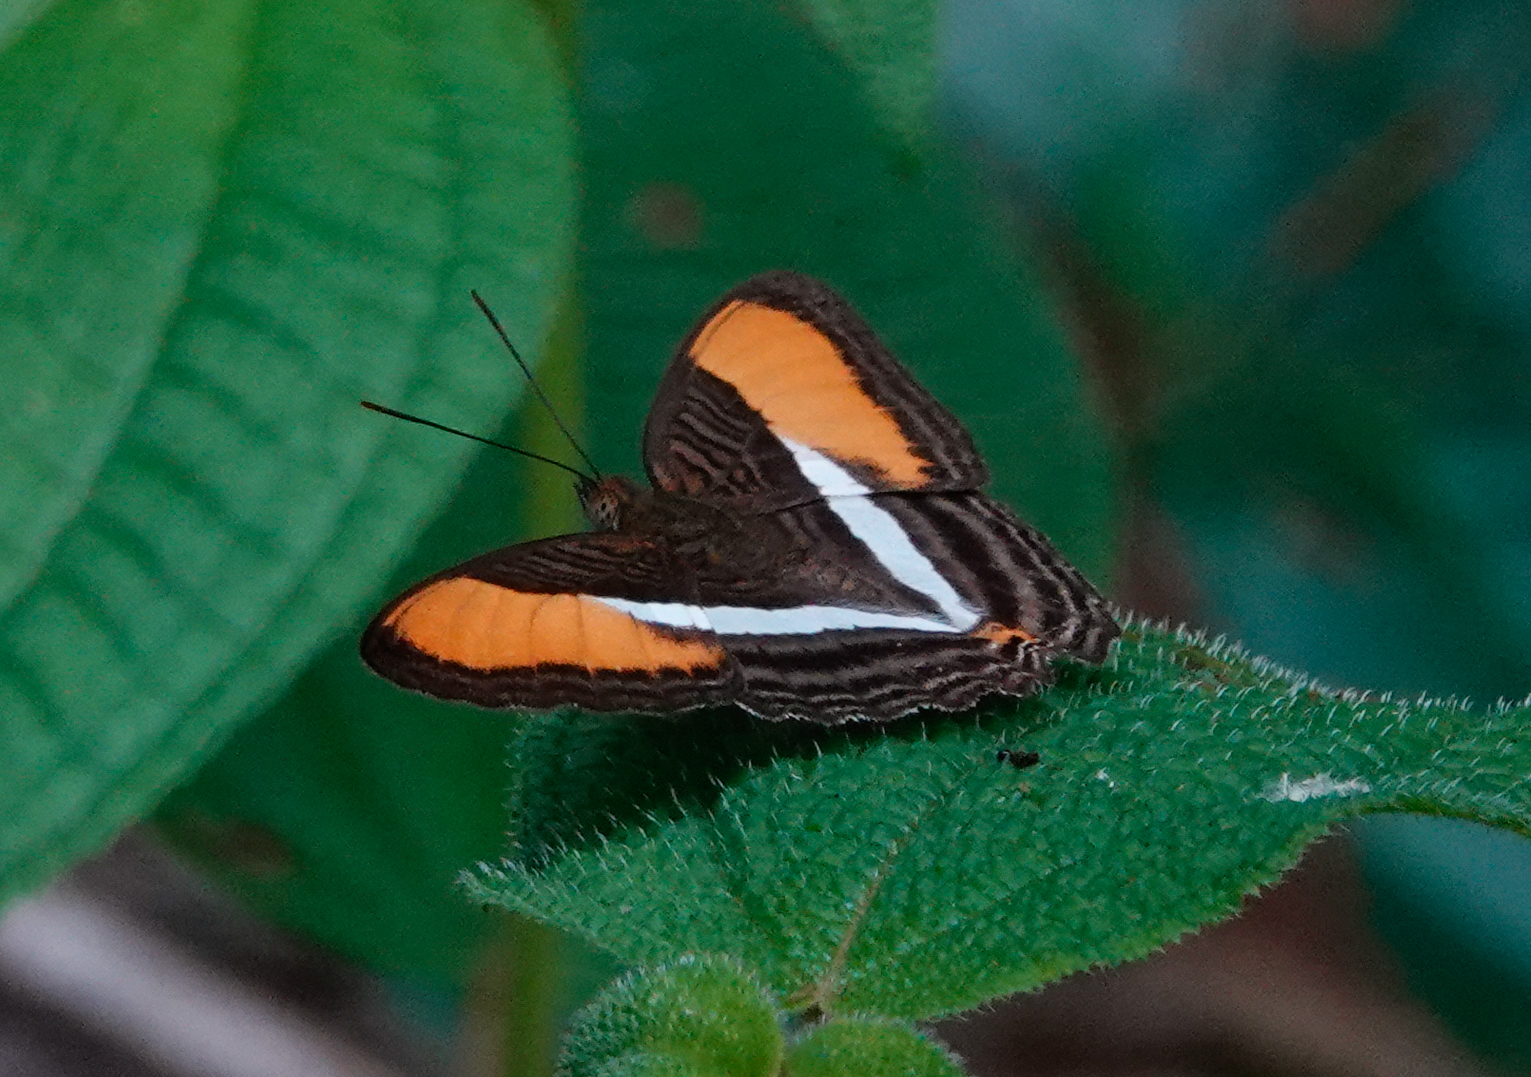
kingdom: Animalia
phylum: Arthropoda
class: Insecta
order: Lepidoptera
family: Nymphalidae
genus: Limenitis
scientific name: Limenitis cytherea
